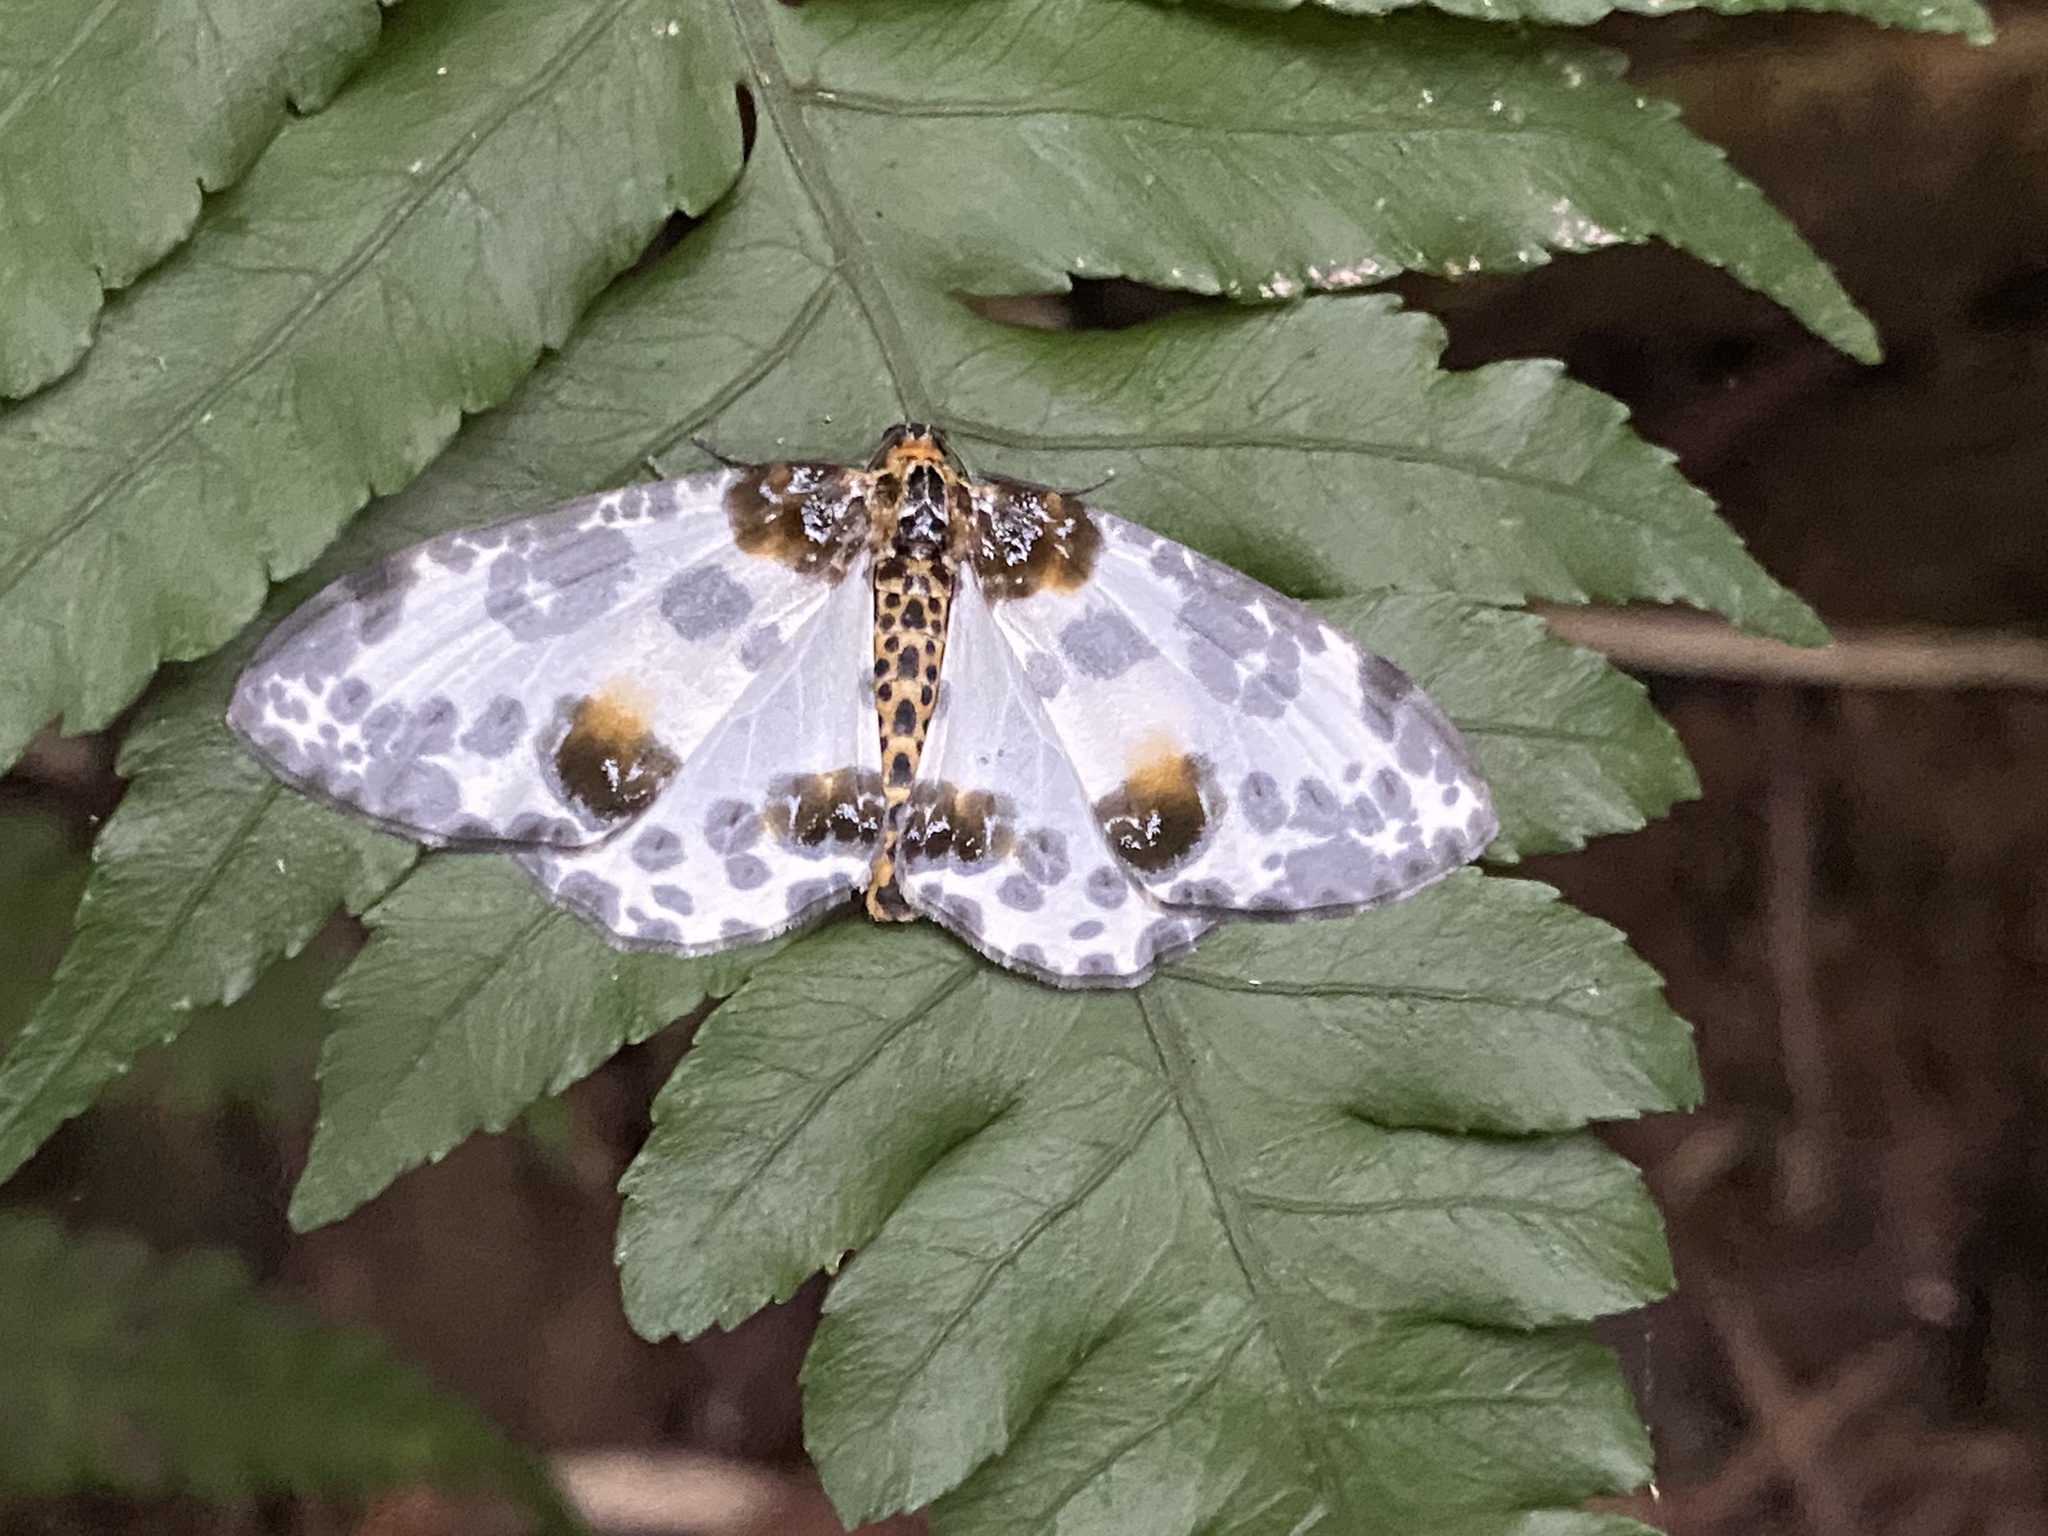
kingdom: Animalia
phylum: Arthropoda
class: Insecta
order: Lepidoptera
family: Geometridae
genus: Abraxas
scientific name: Abraxas illuminata
